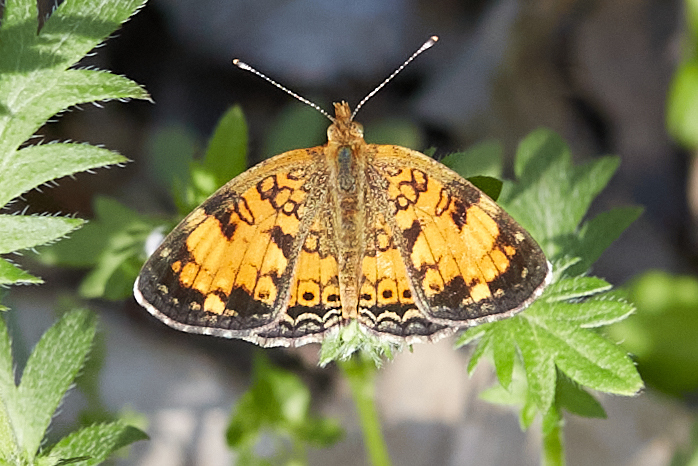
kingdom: Animalia
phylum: Arthropoda
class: Insecta
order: Lepidoptera
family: Nymphalidae
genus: Phyciodes
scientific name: Phyciodes tharos
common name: Pearl crescent
